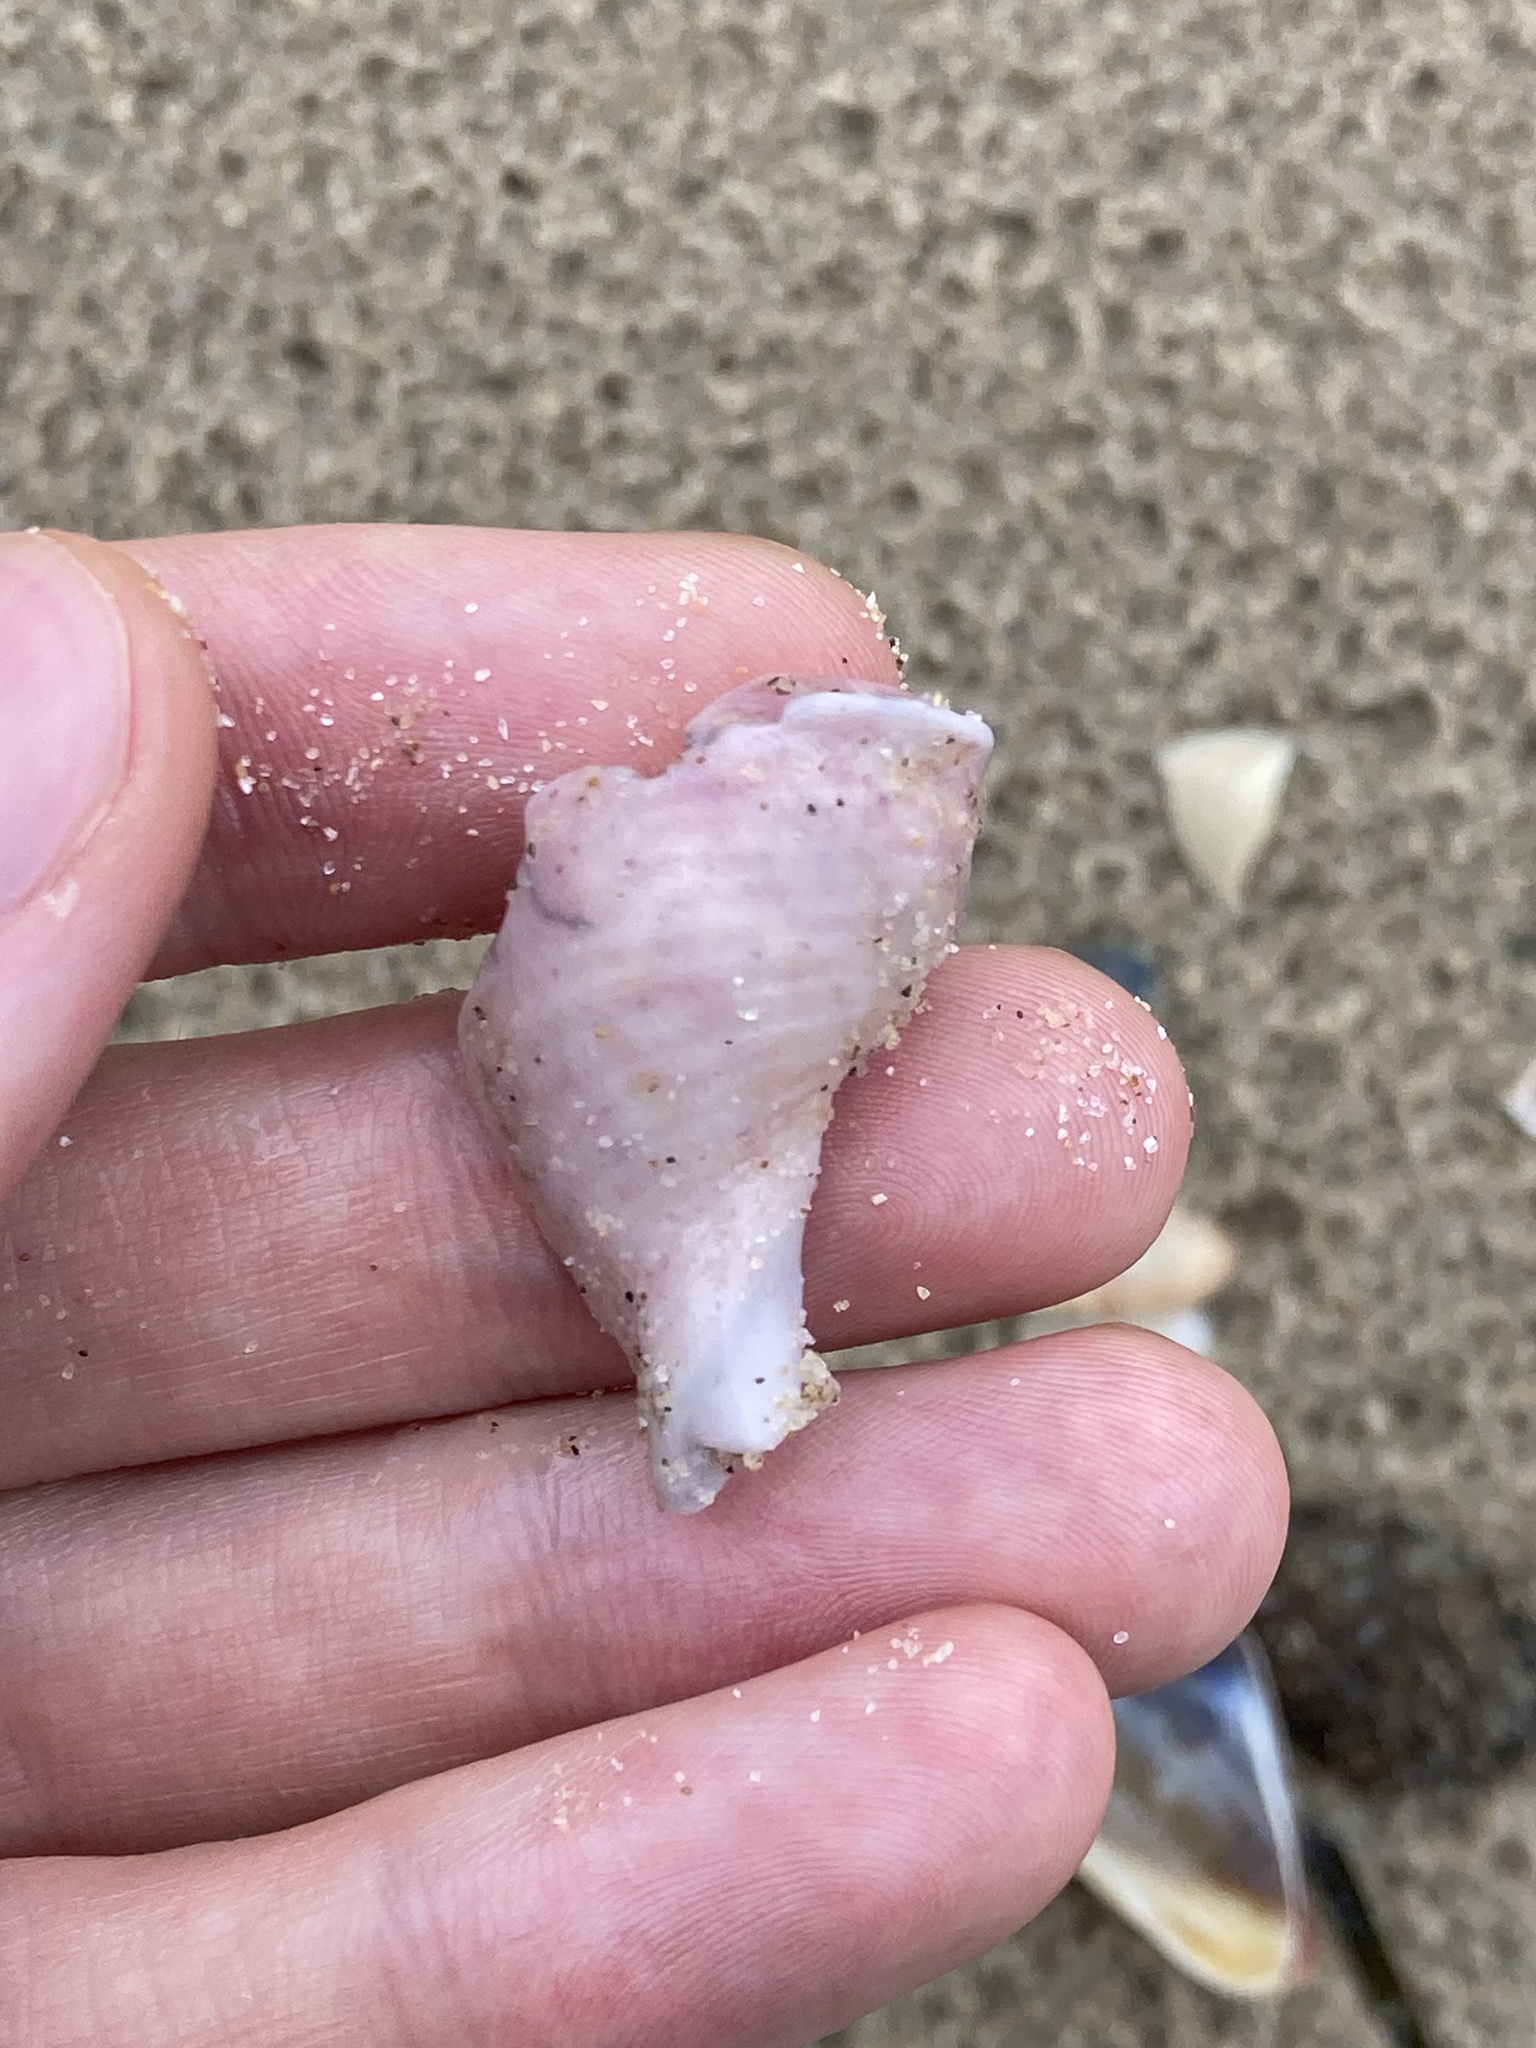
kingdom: Animalia
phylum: Mollusca
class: Gastropoda
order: Littorinimorpha
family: Tonnidae
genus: Tonna
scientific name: Tonna tankervillii
